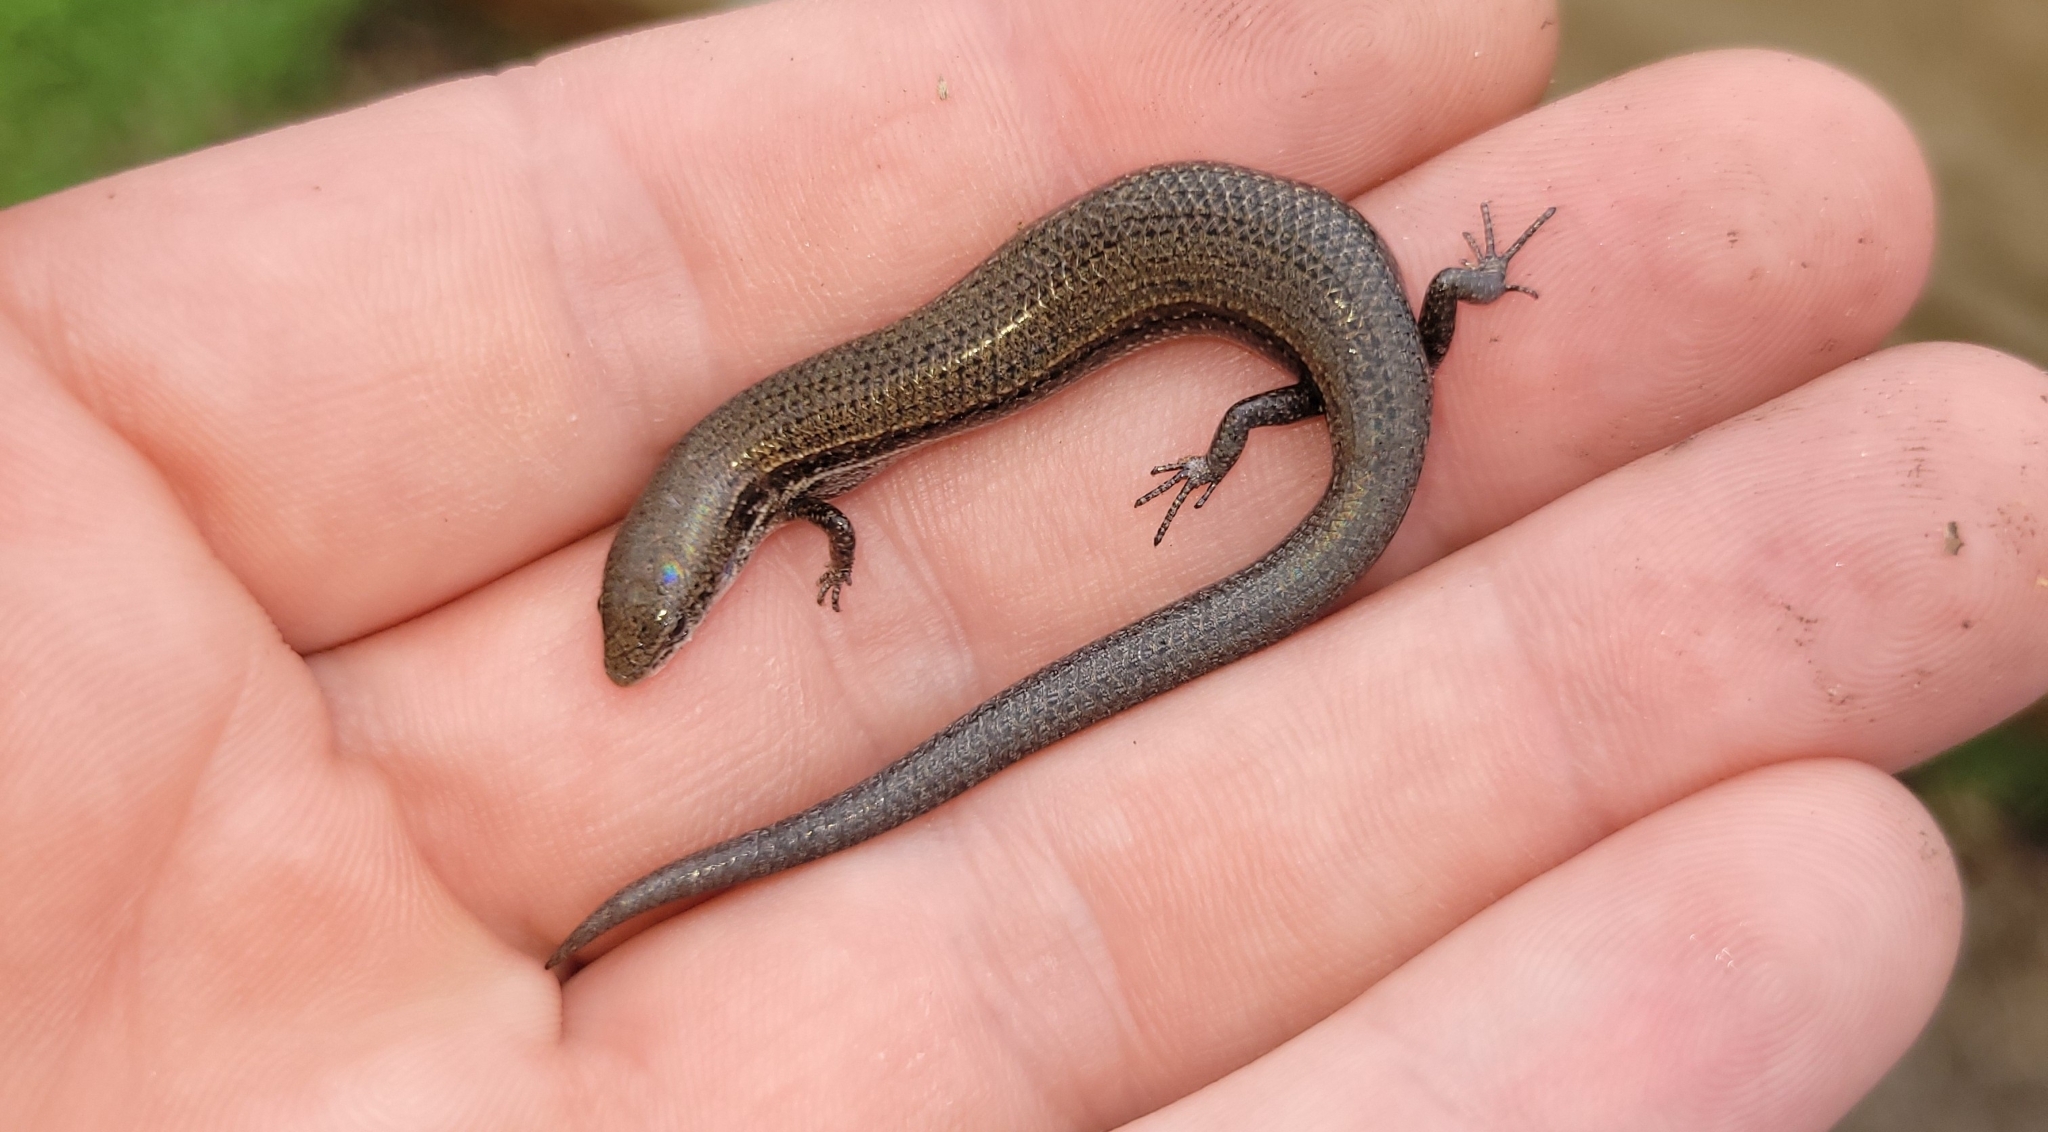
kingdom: Animalia
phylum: Chordata
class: Squamata
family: Scincidae
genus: Panaspis
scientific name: Panaspis wahlbergii
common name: Angolan snake-eyed skink
